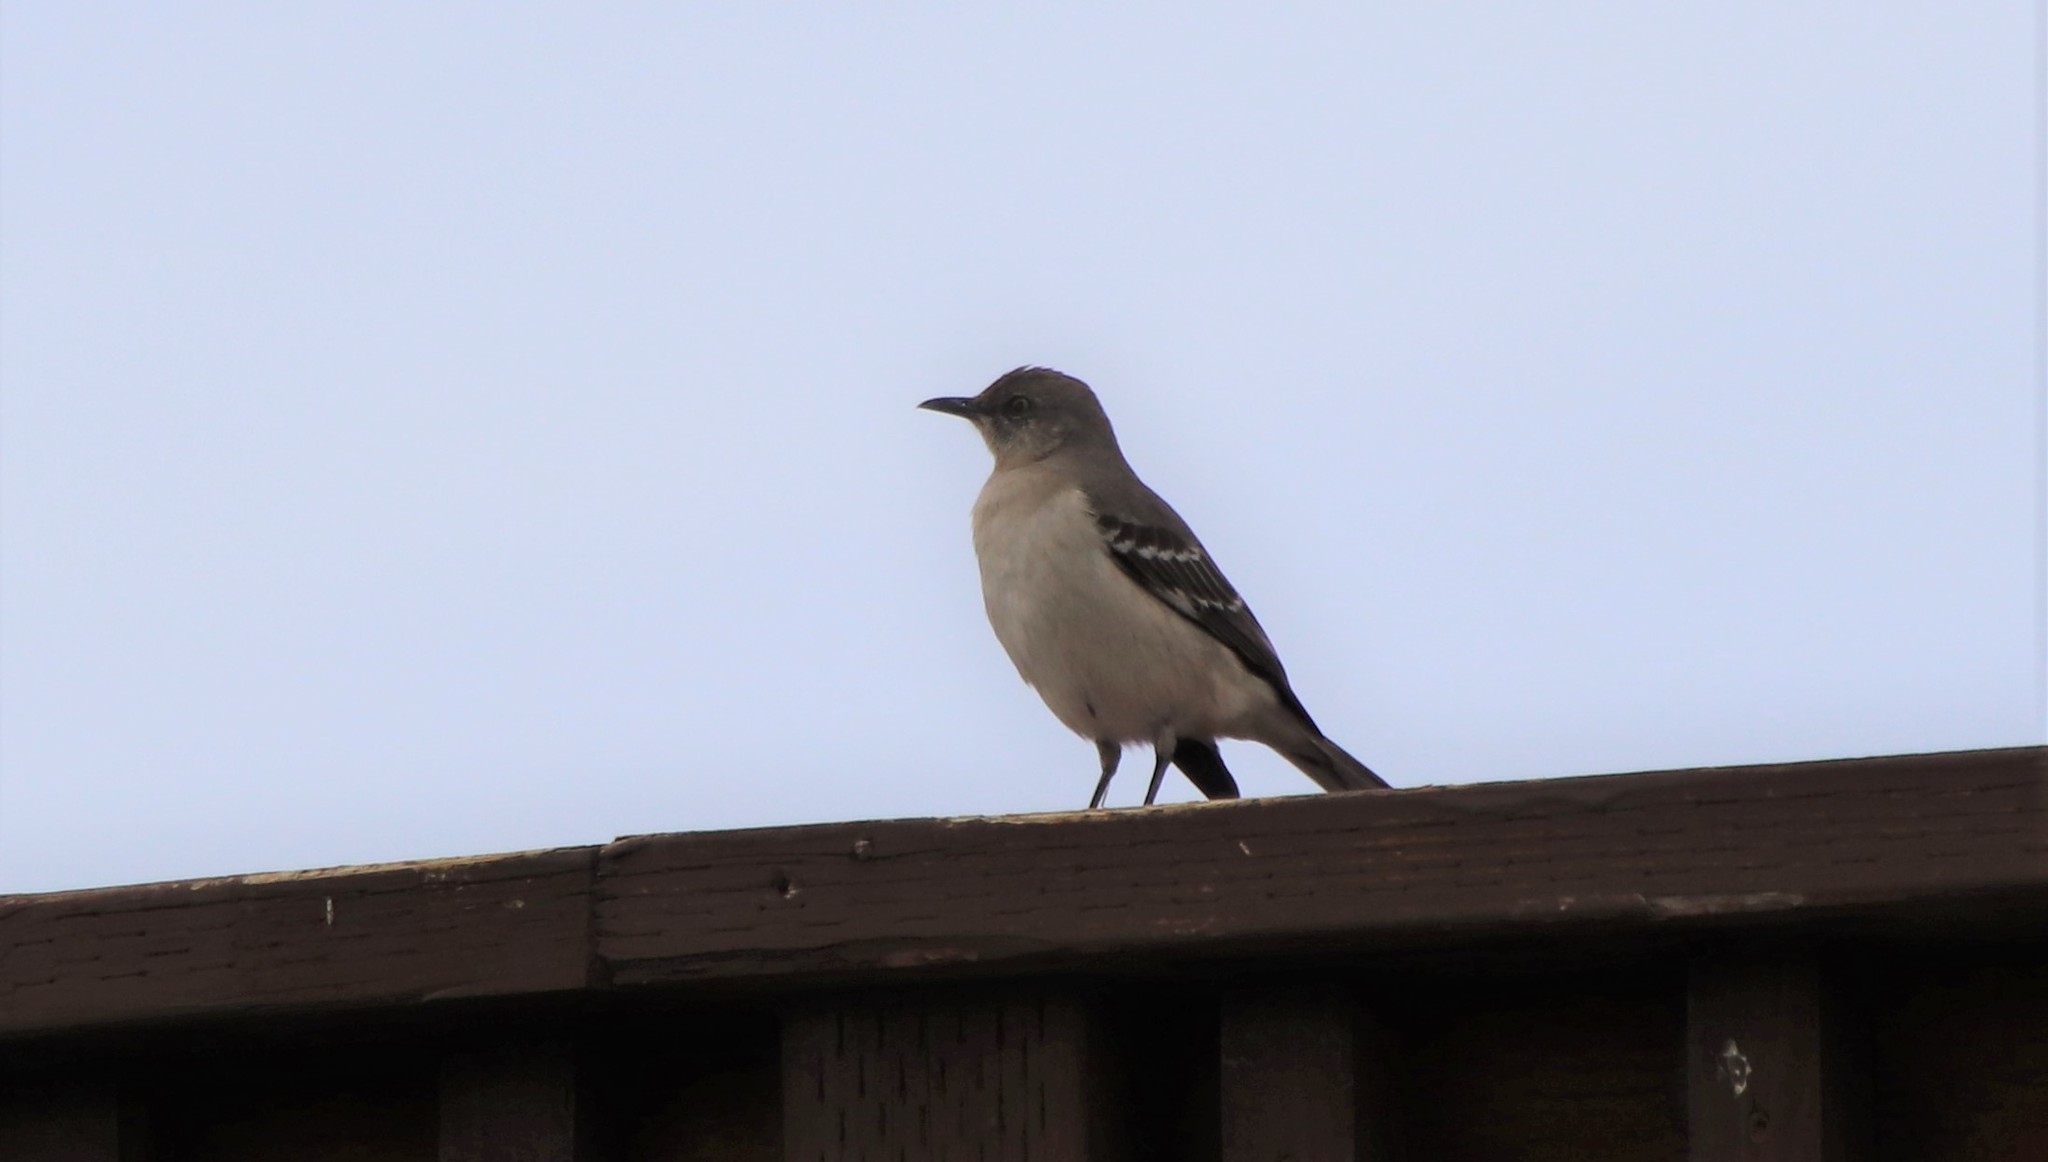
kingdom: Animalia
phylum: Chordata
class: Aves
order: Passeriformes
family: Mimidae
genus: Mimus
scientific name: Mimus polyglottos
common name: Northern mockingbird
